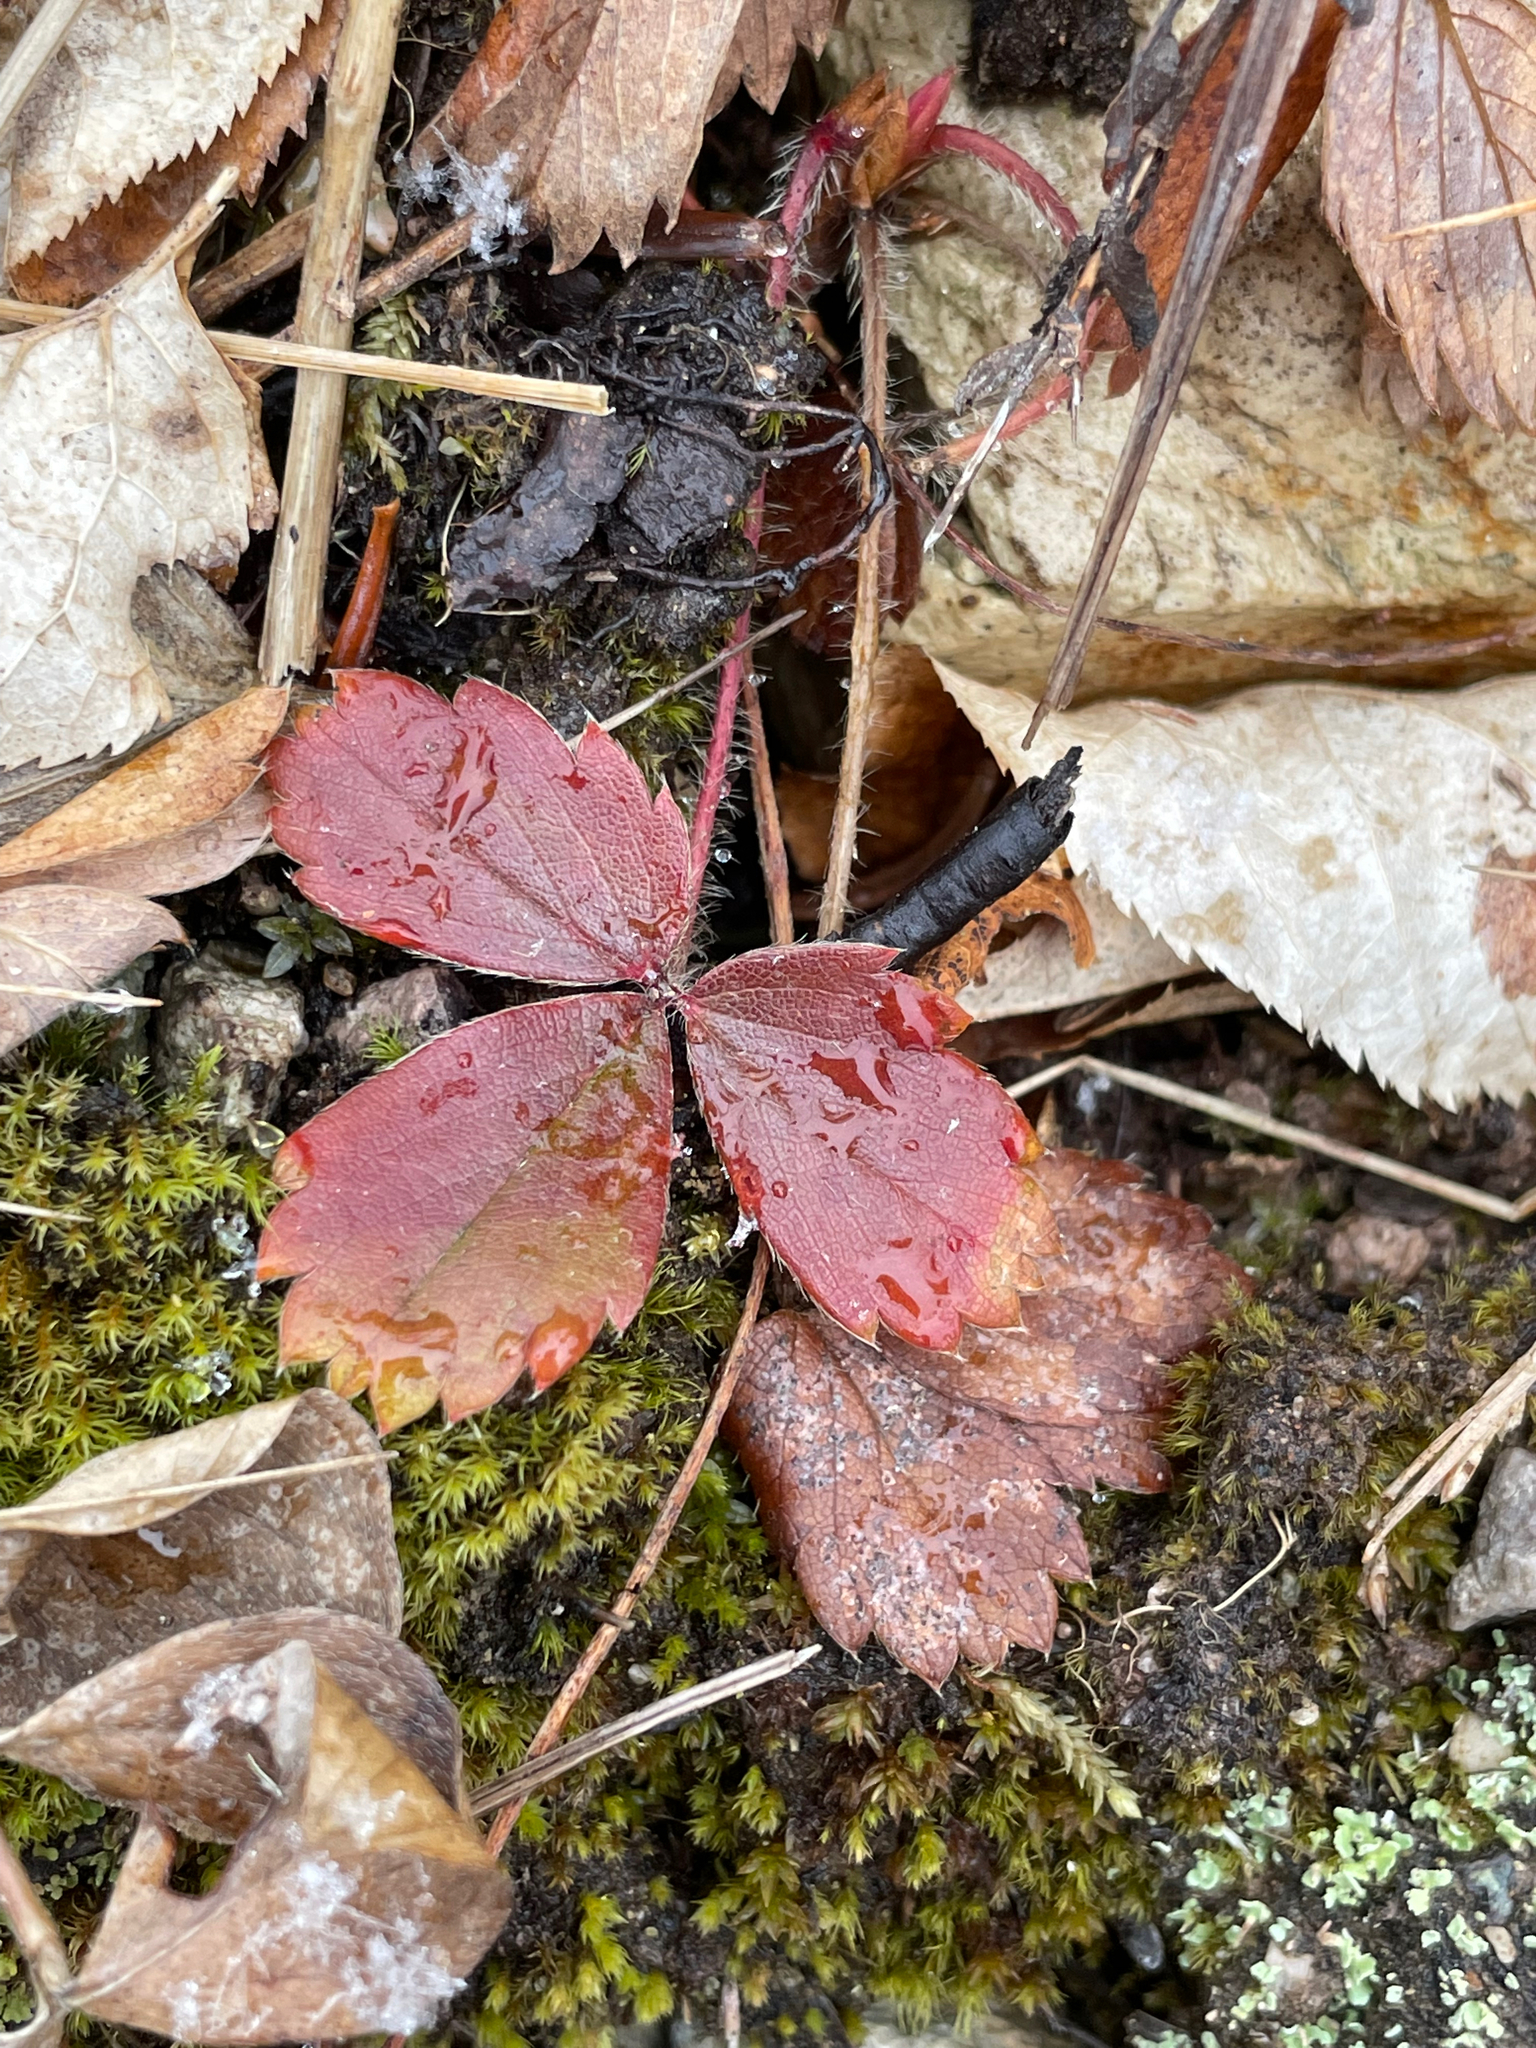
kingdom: Plantae
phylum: Tracheophyta
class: Magnoliopsida
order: Rosales
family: Rosaceae
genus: Fragaria
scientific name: Fragaria virginiana
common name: Thickleaved wild strawberry
